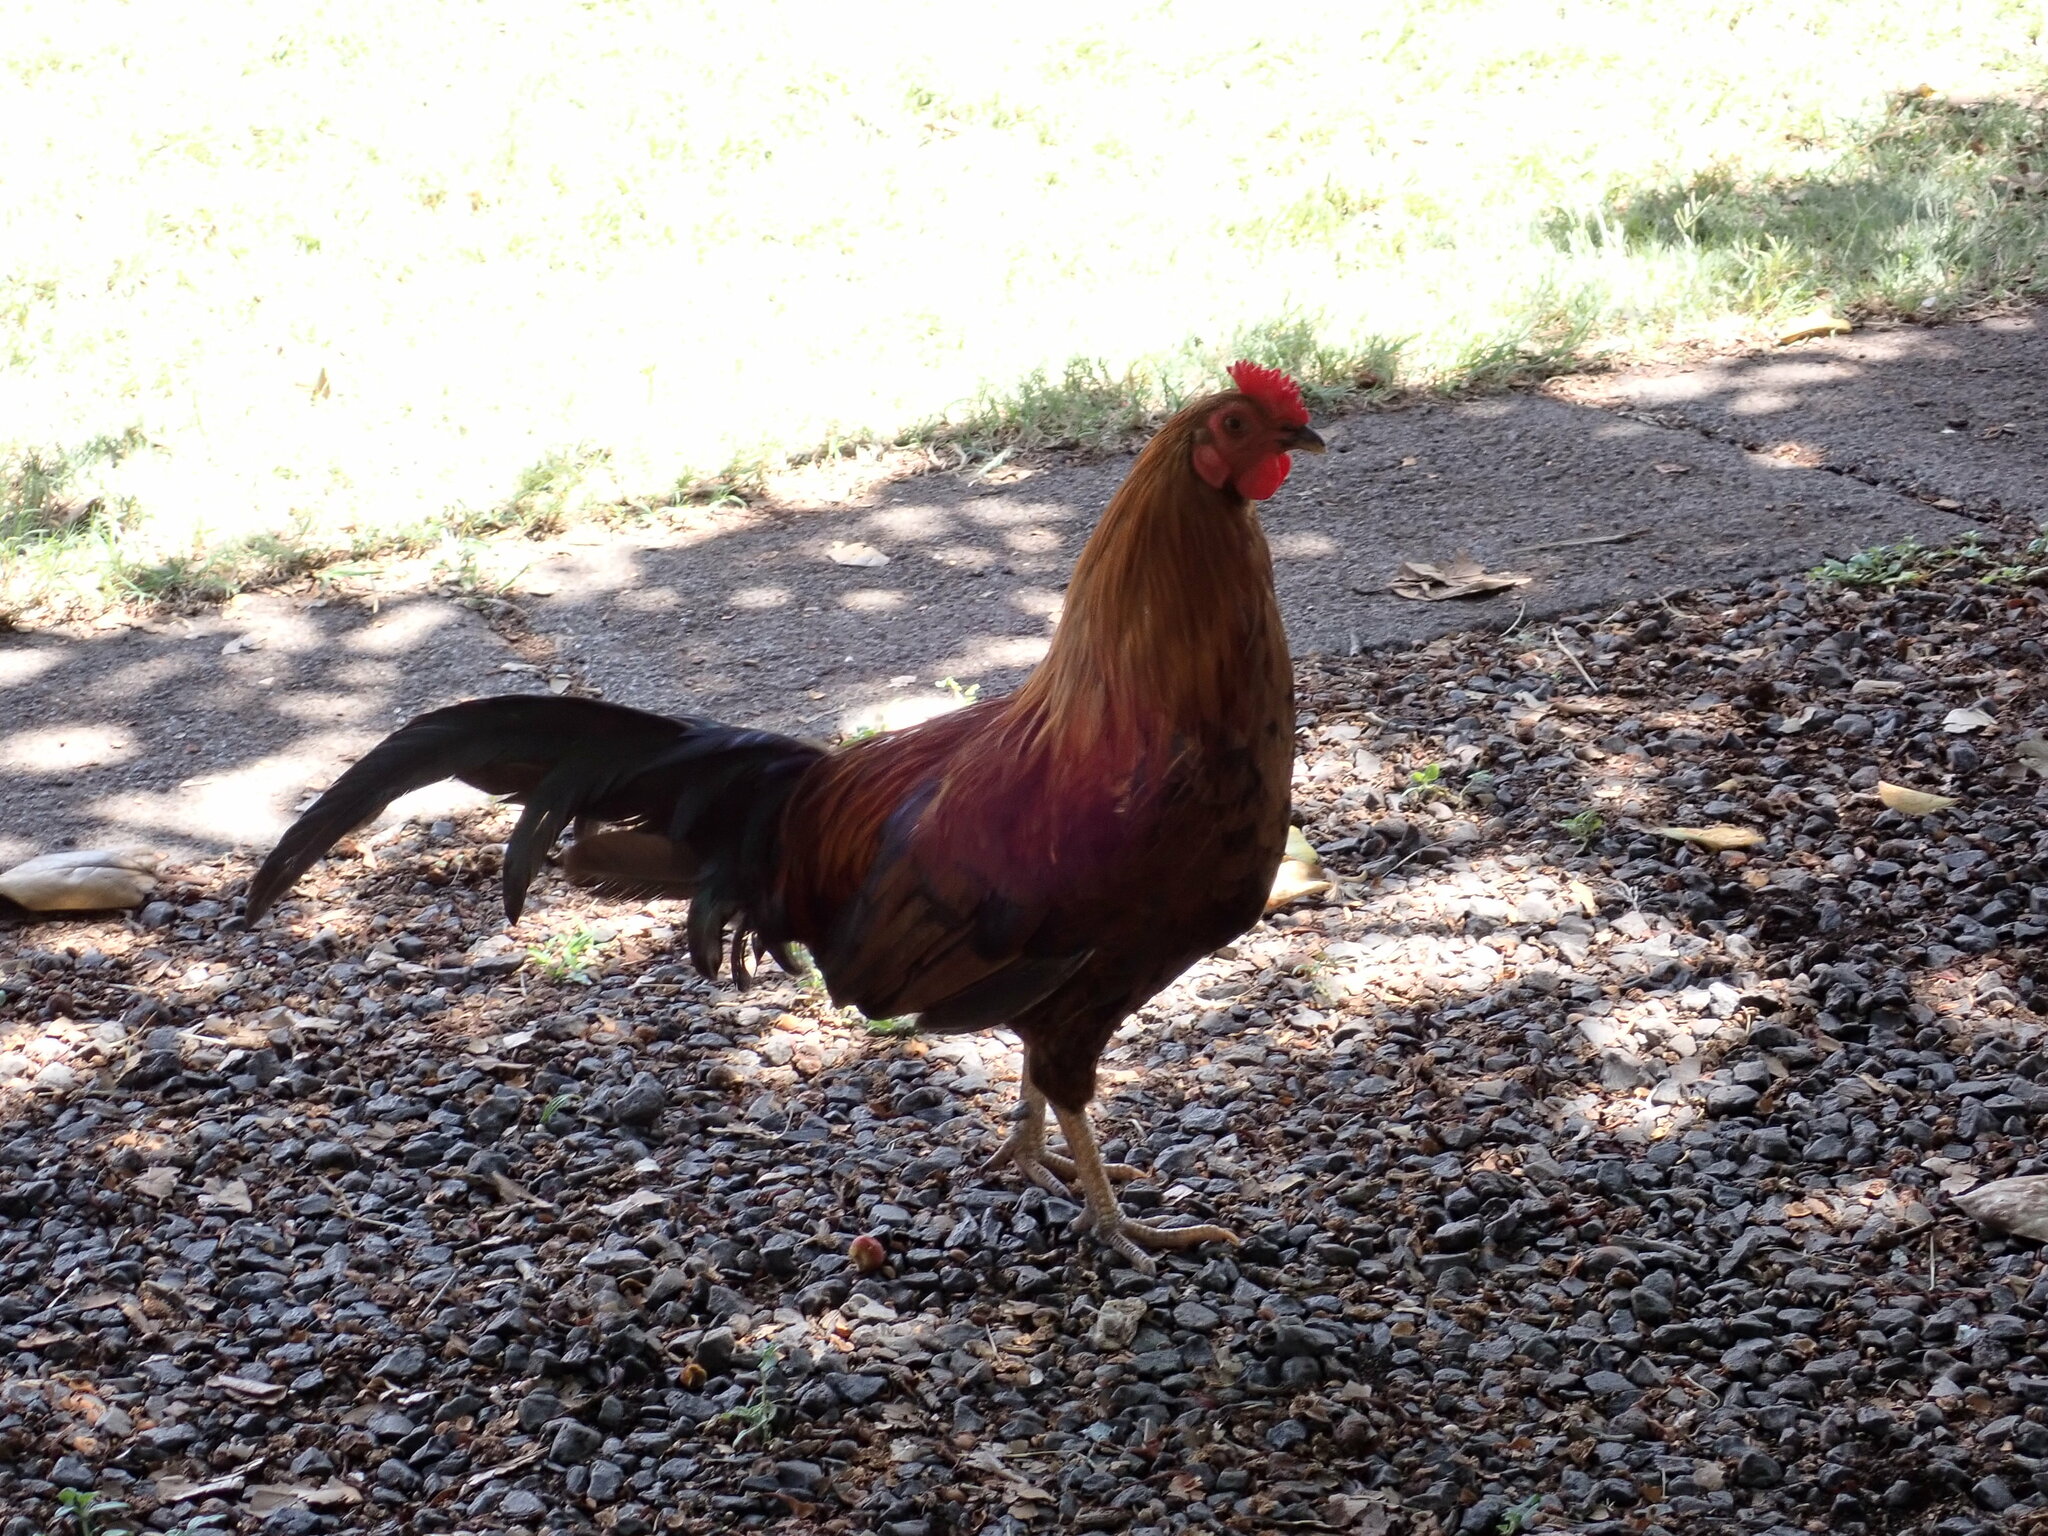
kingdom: Animalia
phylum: Chordata
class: Aves
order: Galliformes
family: Phasianidae
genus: Gallus
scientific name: Gallus gallus
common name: Red junglefowl
